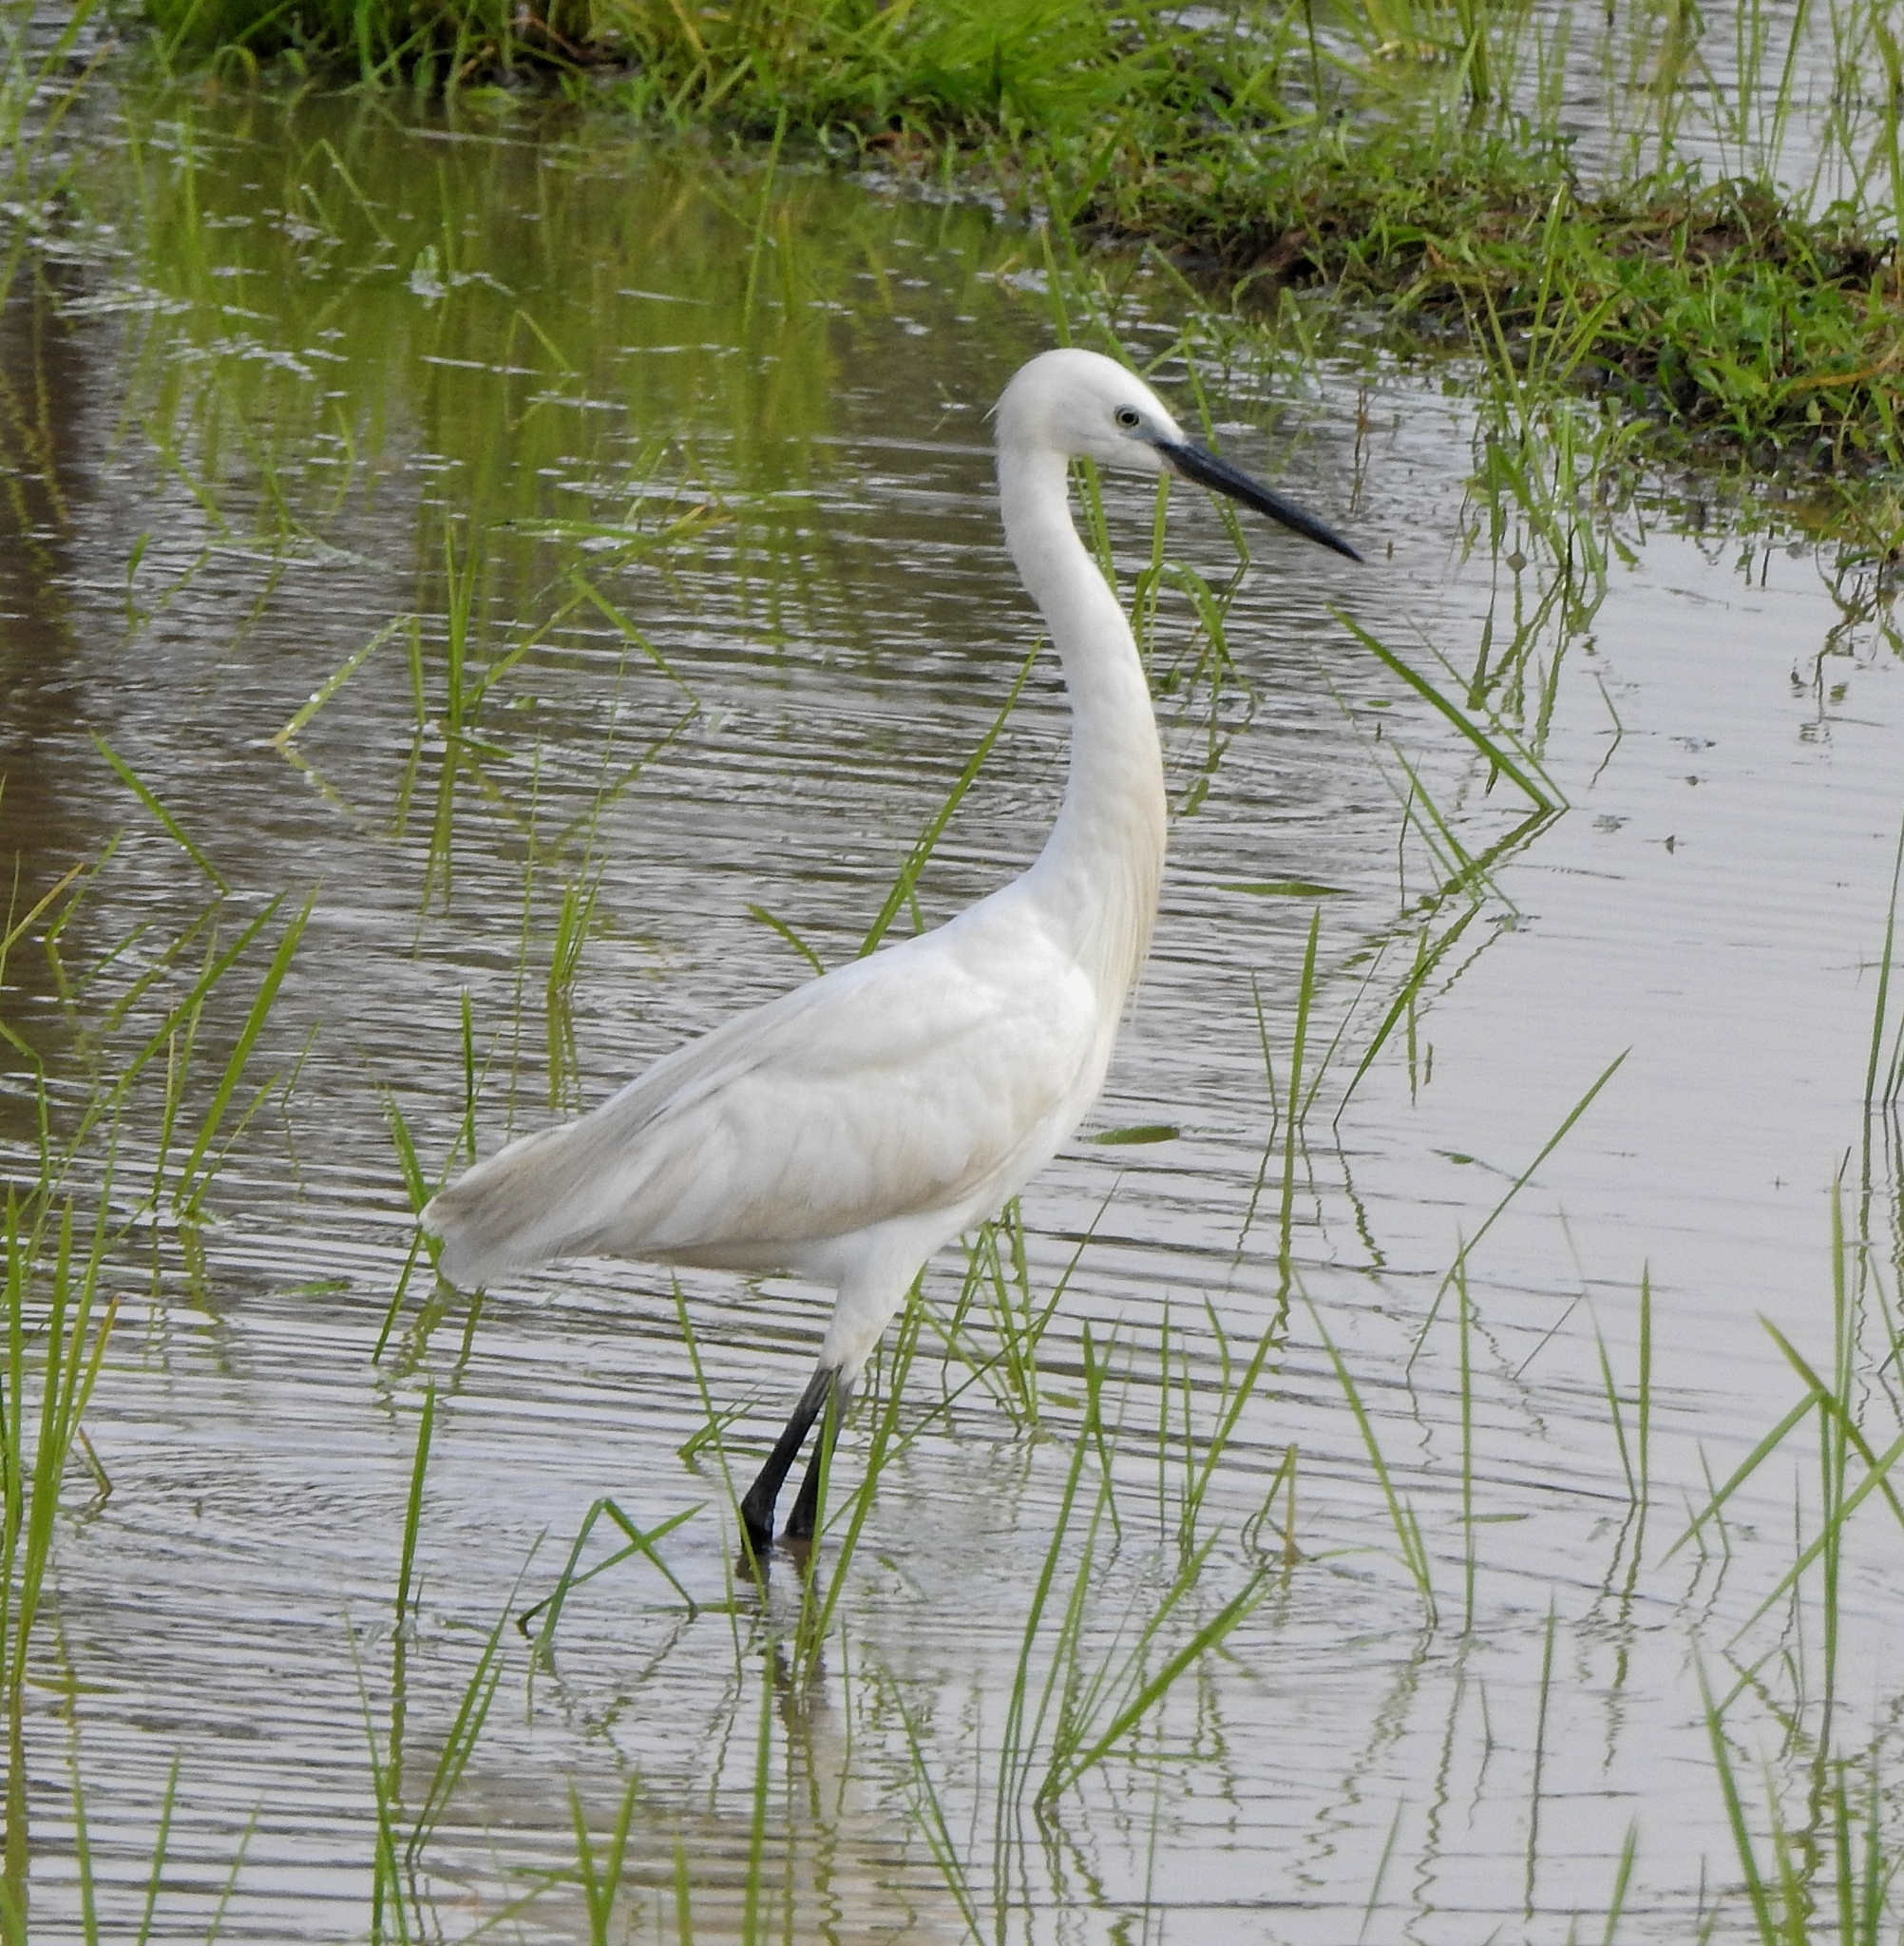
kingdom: Animalia
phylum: Chordata
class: Aves
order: Pelecaniformes
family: Ardeidae
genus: Egretta
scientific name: Egretta garzetta
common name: Little egret
